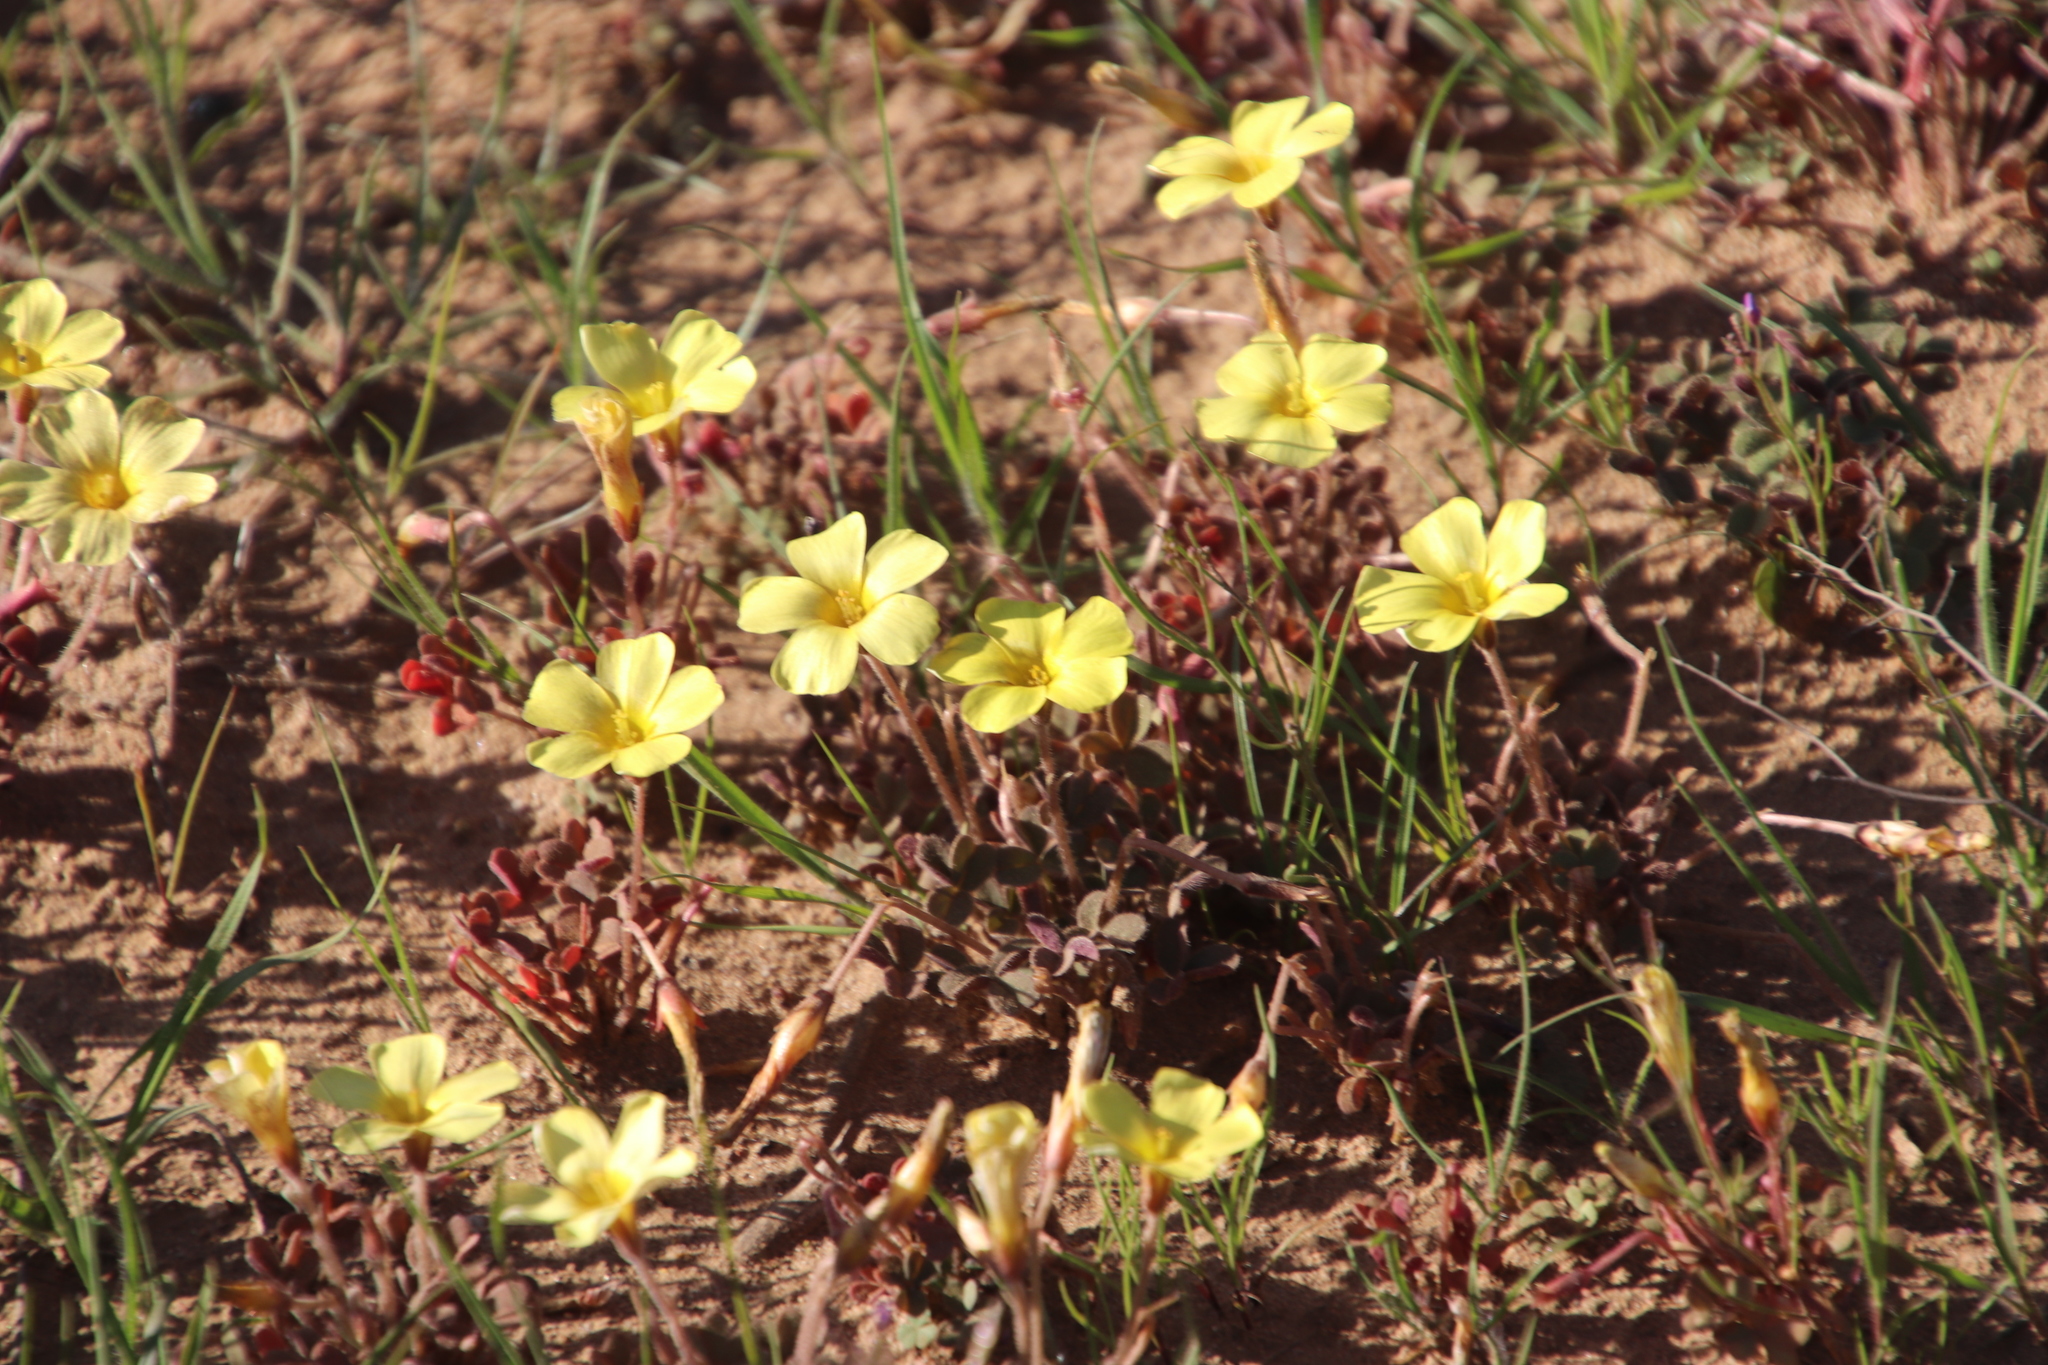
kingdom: Plantae
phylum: Tracheophyta
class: Magnoliopsida
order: Oxalidales
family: Oxalidaceae
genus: Oxalis
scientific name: Oxalis obtusa
